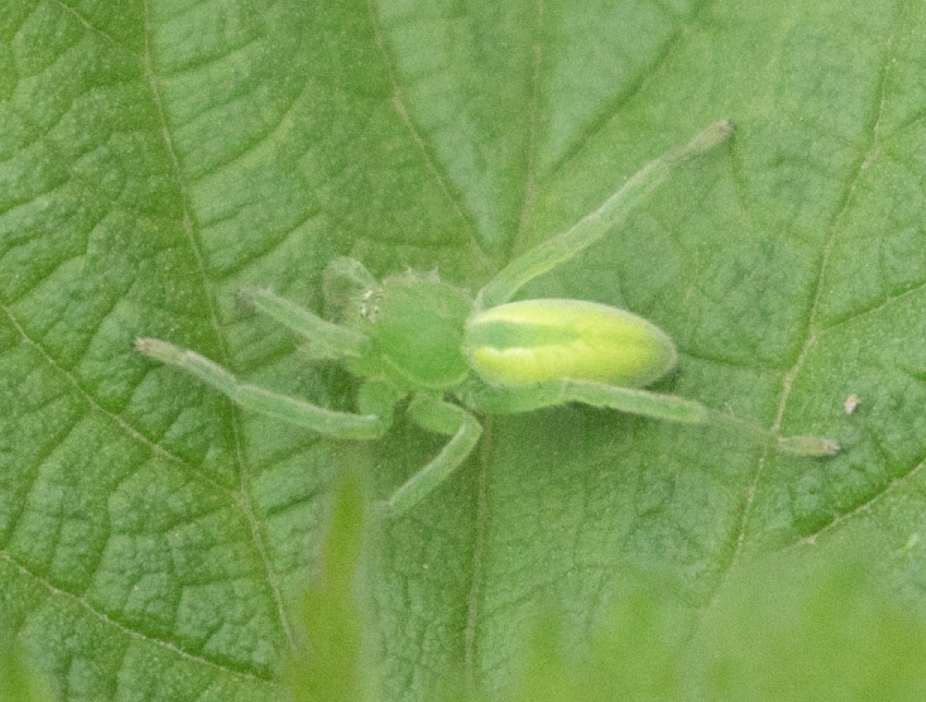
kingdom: Animalia
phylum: Arthropoda
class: Arachnida
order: Araneae
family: Sparassidae
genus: Micrommata
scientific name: Micrommata virescens
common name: Green spider
